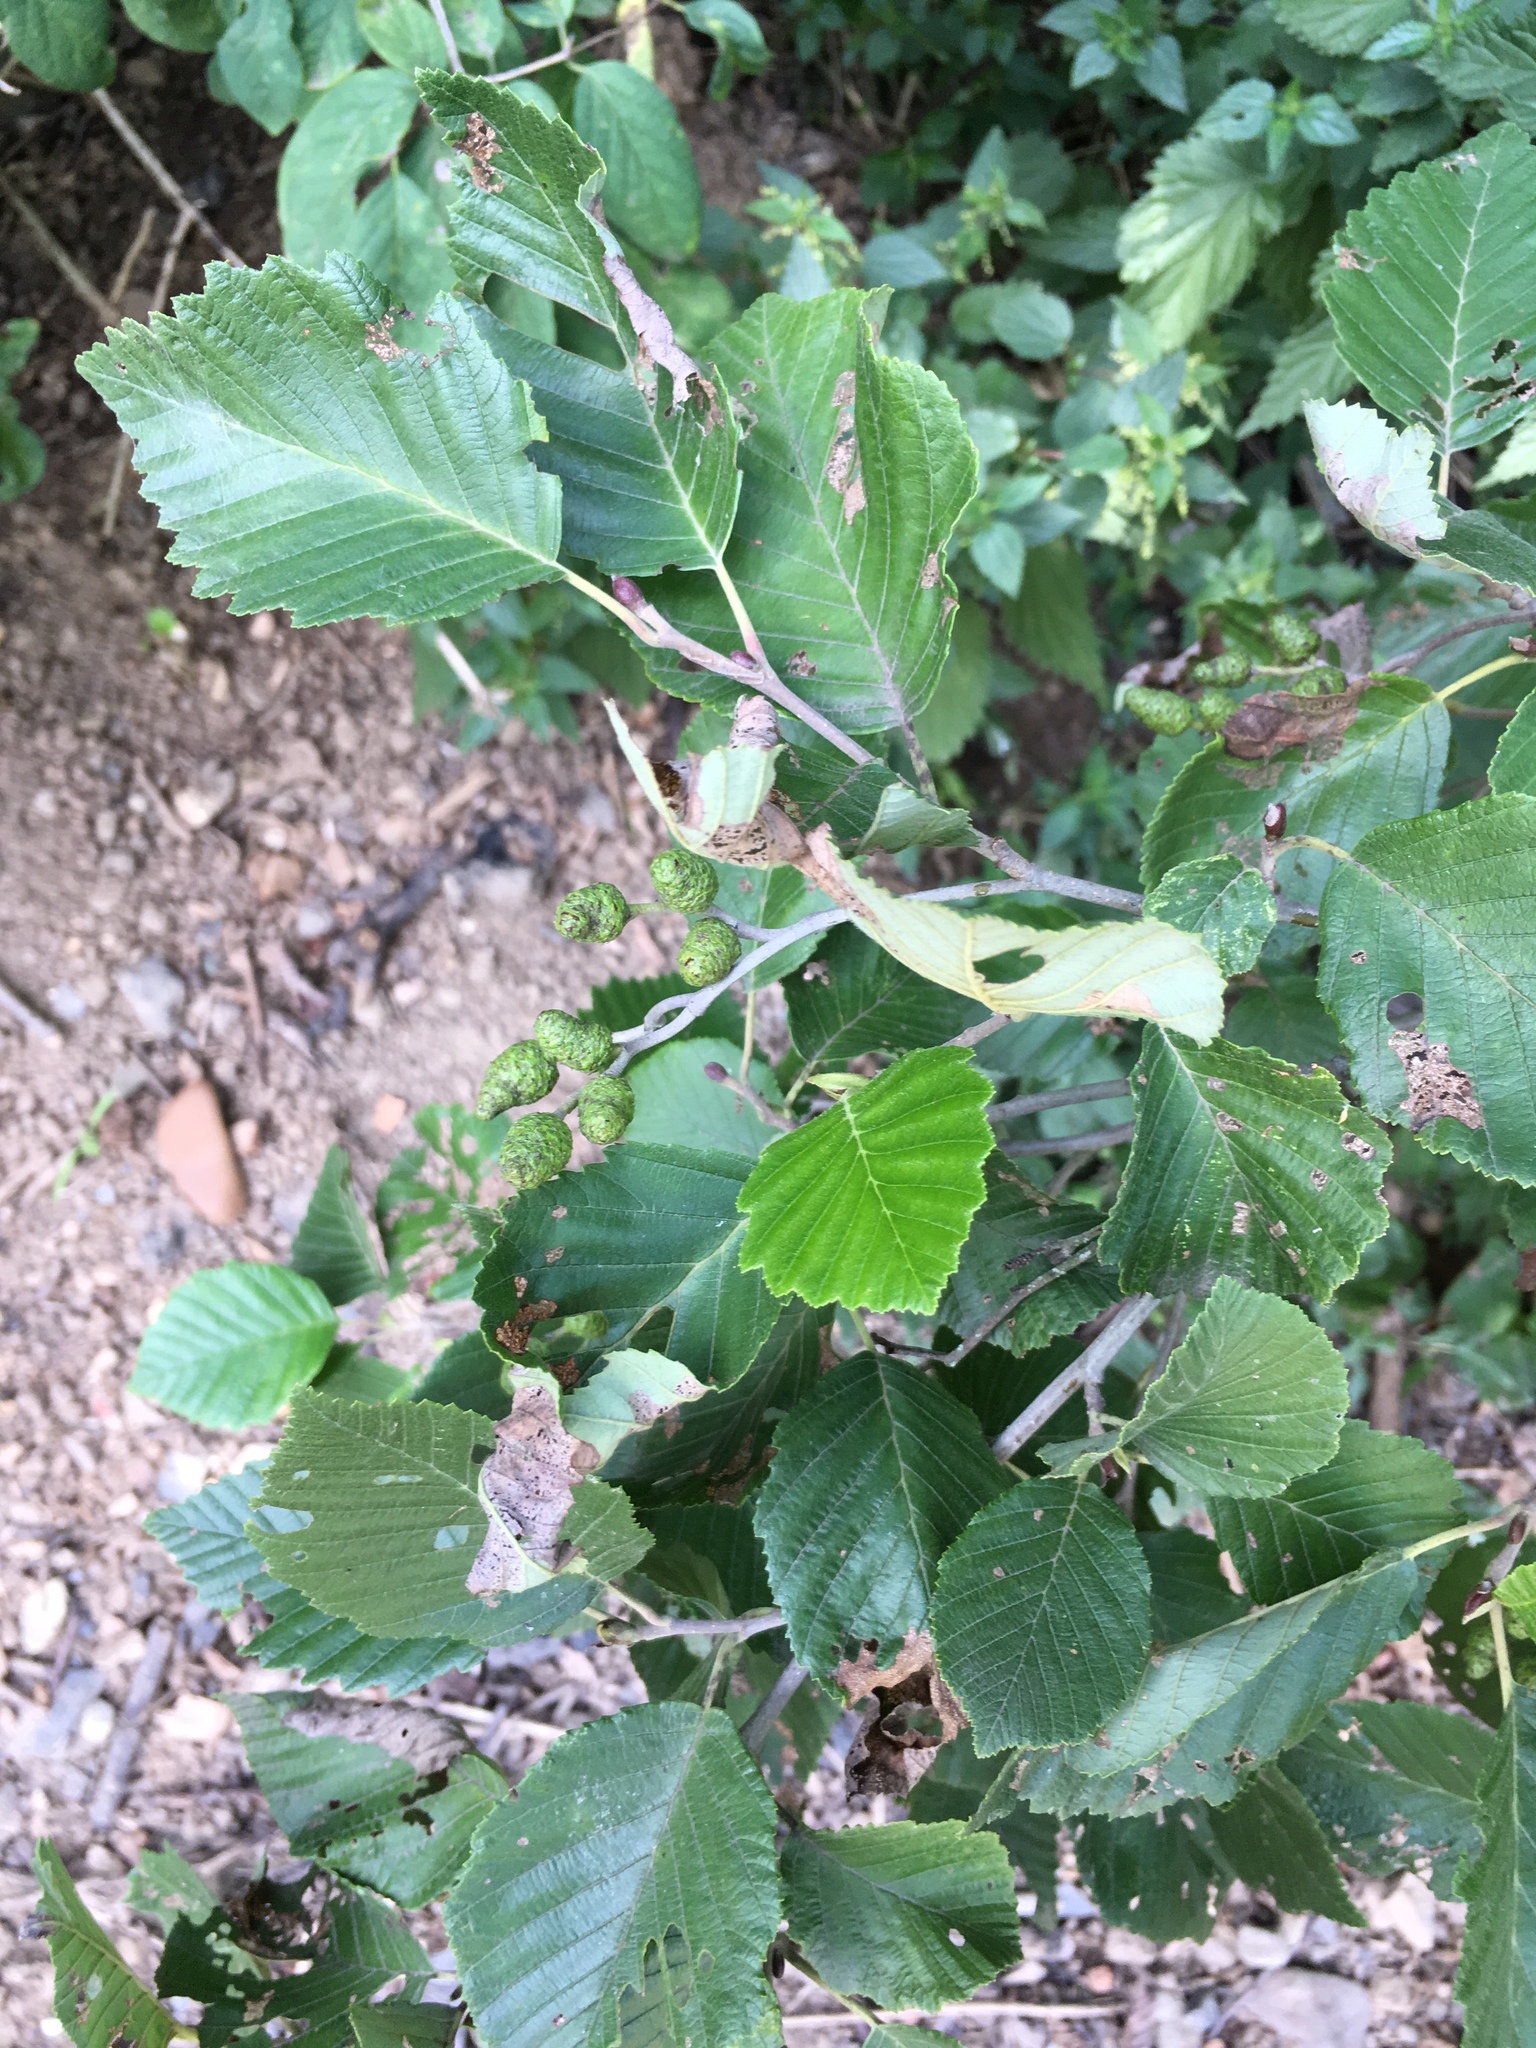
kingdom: Plantae
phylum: Tracheophyta
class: Magnoliopsida
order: Fagales
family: Betulaceae
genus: Alnus
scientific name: Alnus incana
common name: Grey alder
